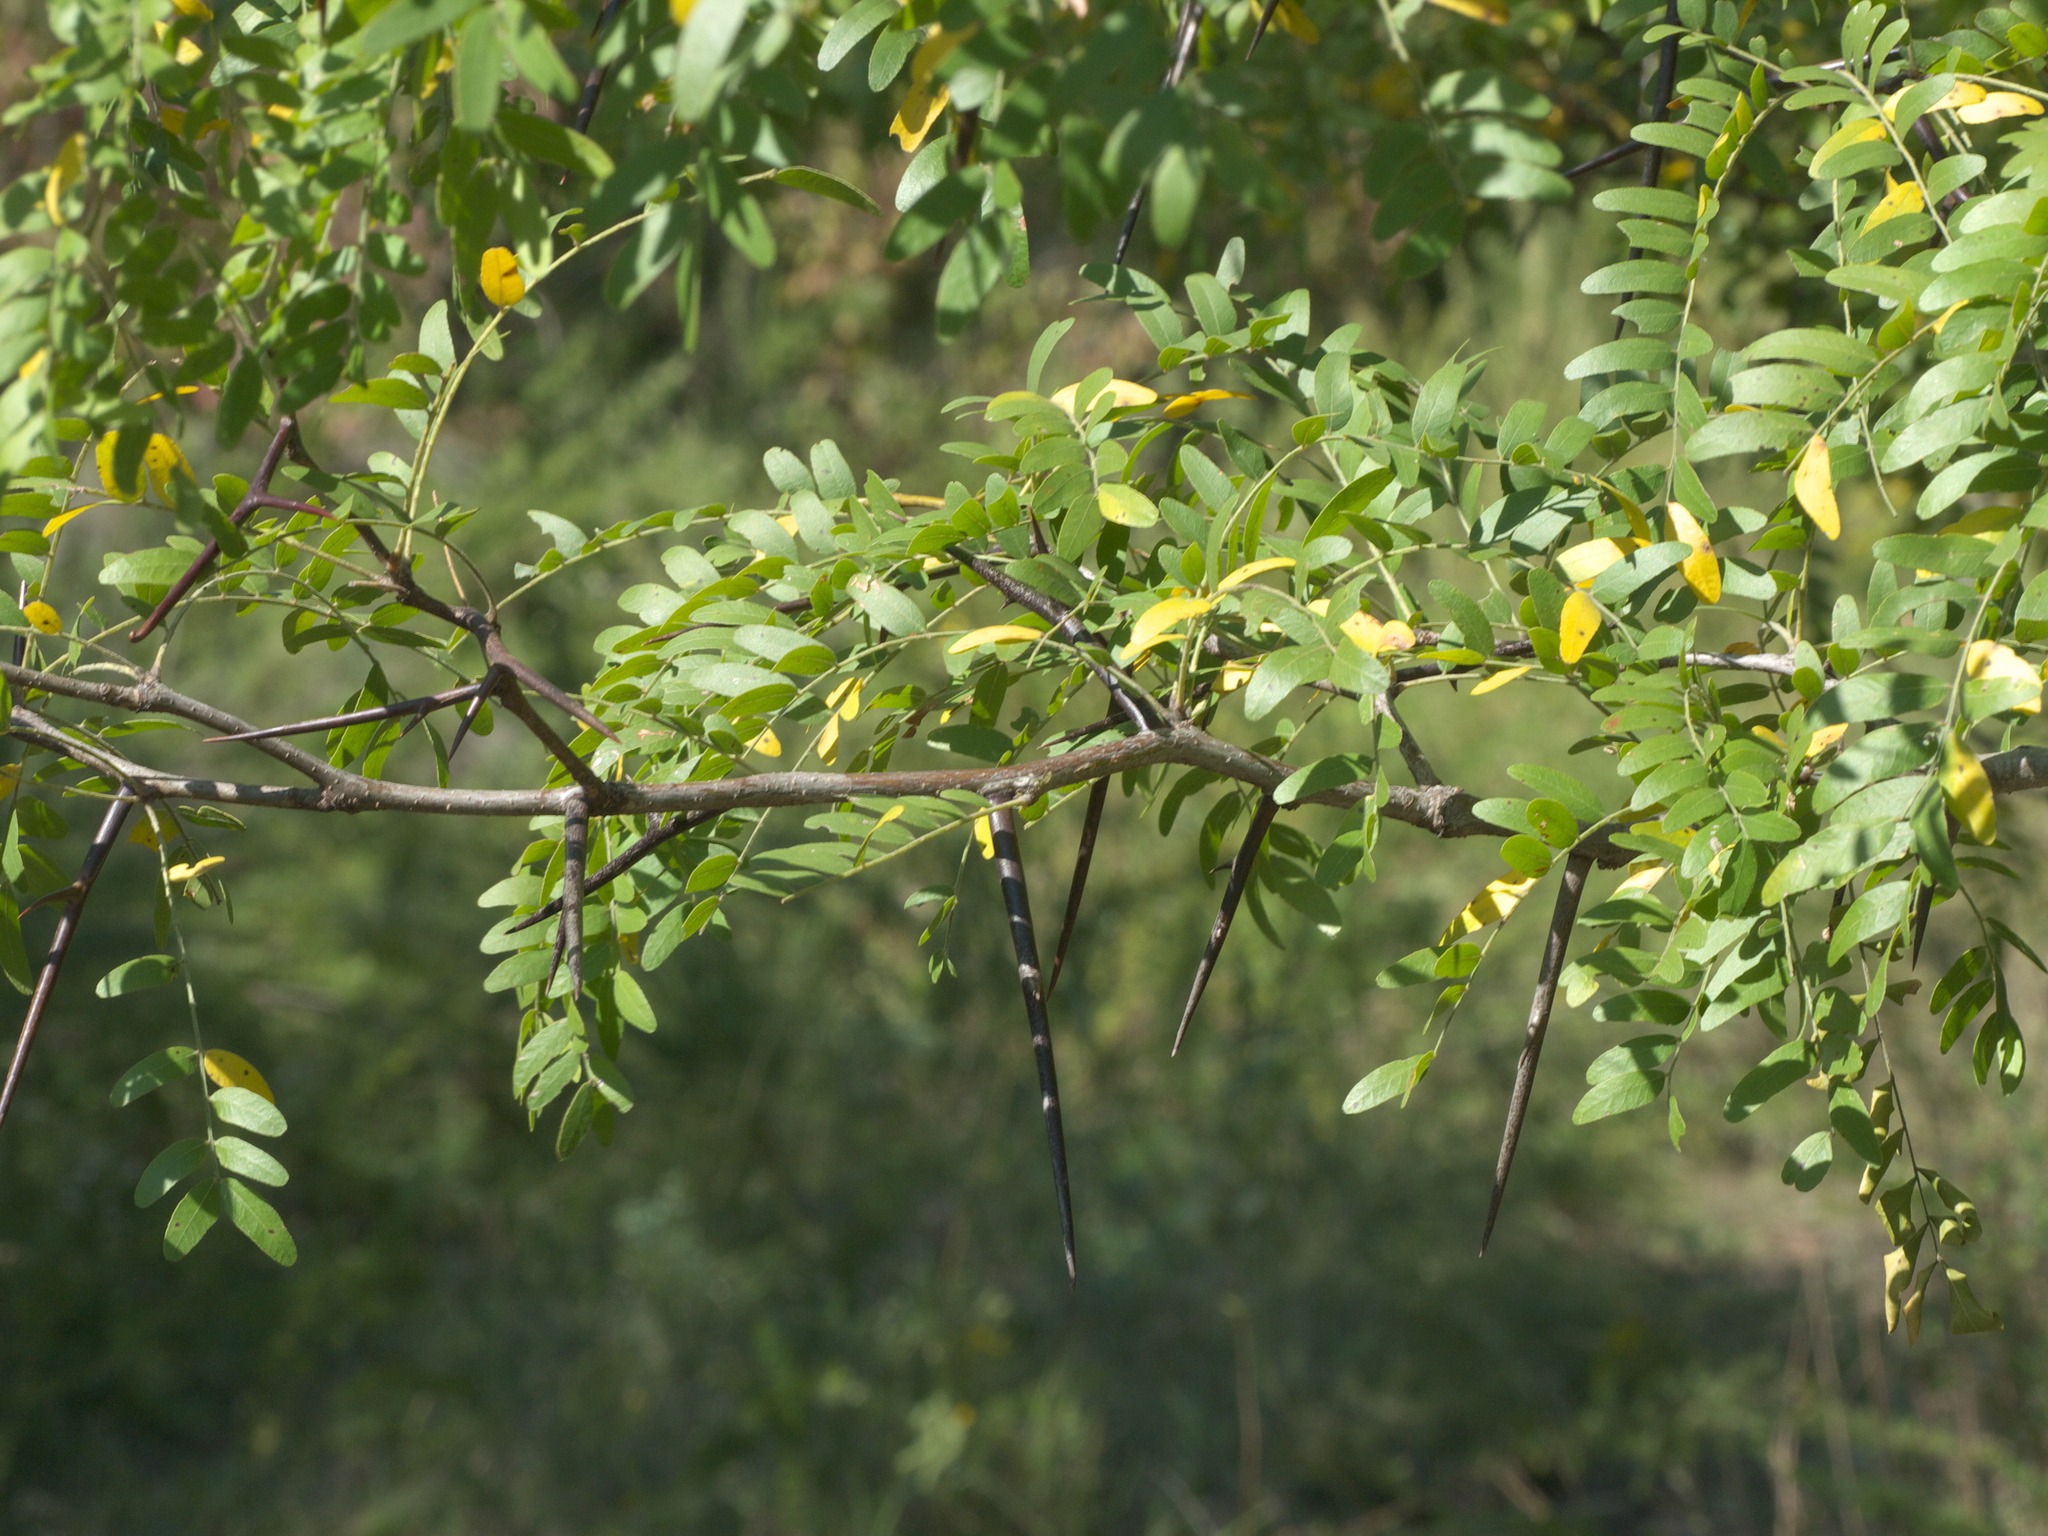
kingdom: Plantae
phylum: Tracheophyta
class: Magnoliopsida
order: Fabales
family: Fabaceae
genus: Gleditsia
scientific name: Gleditsia triacanthos
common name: Common honeylocust
